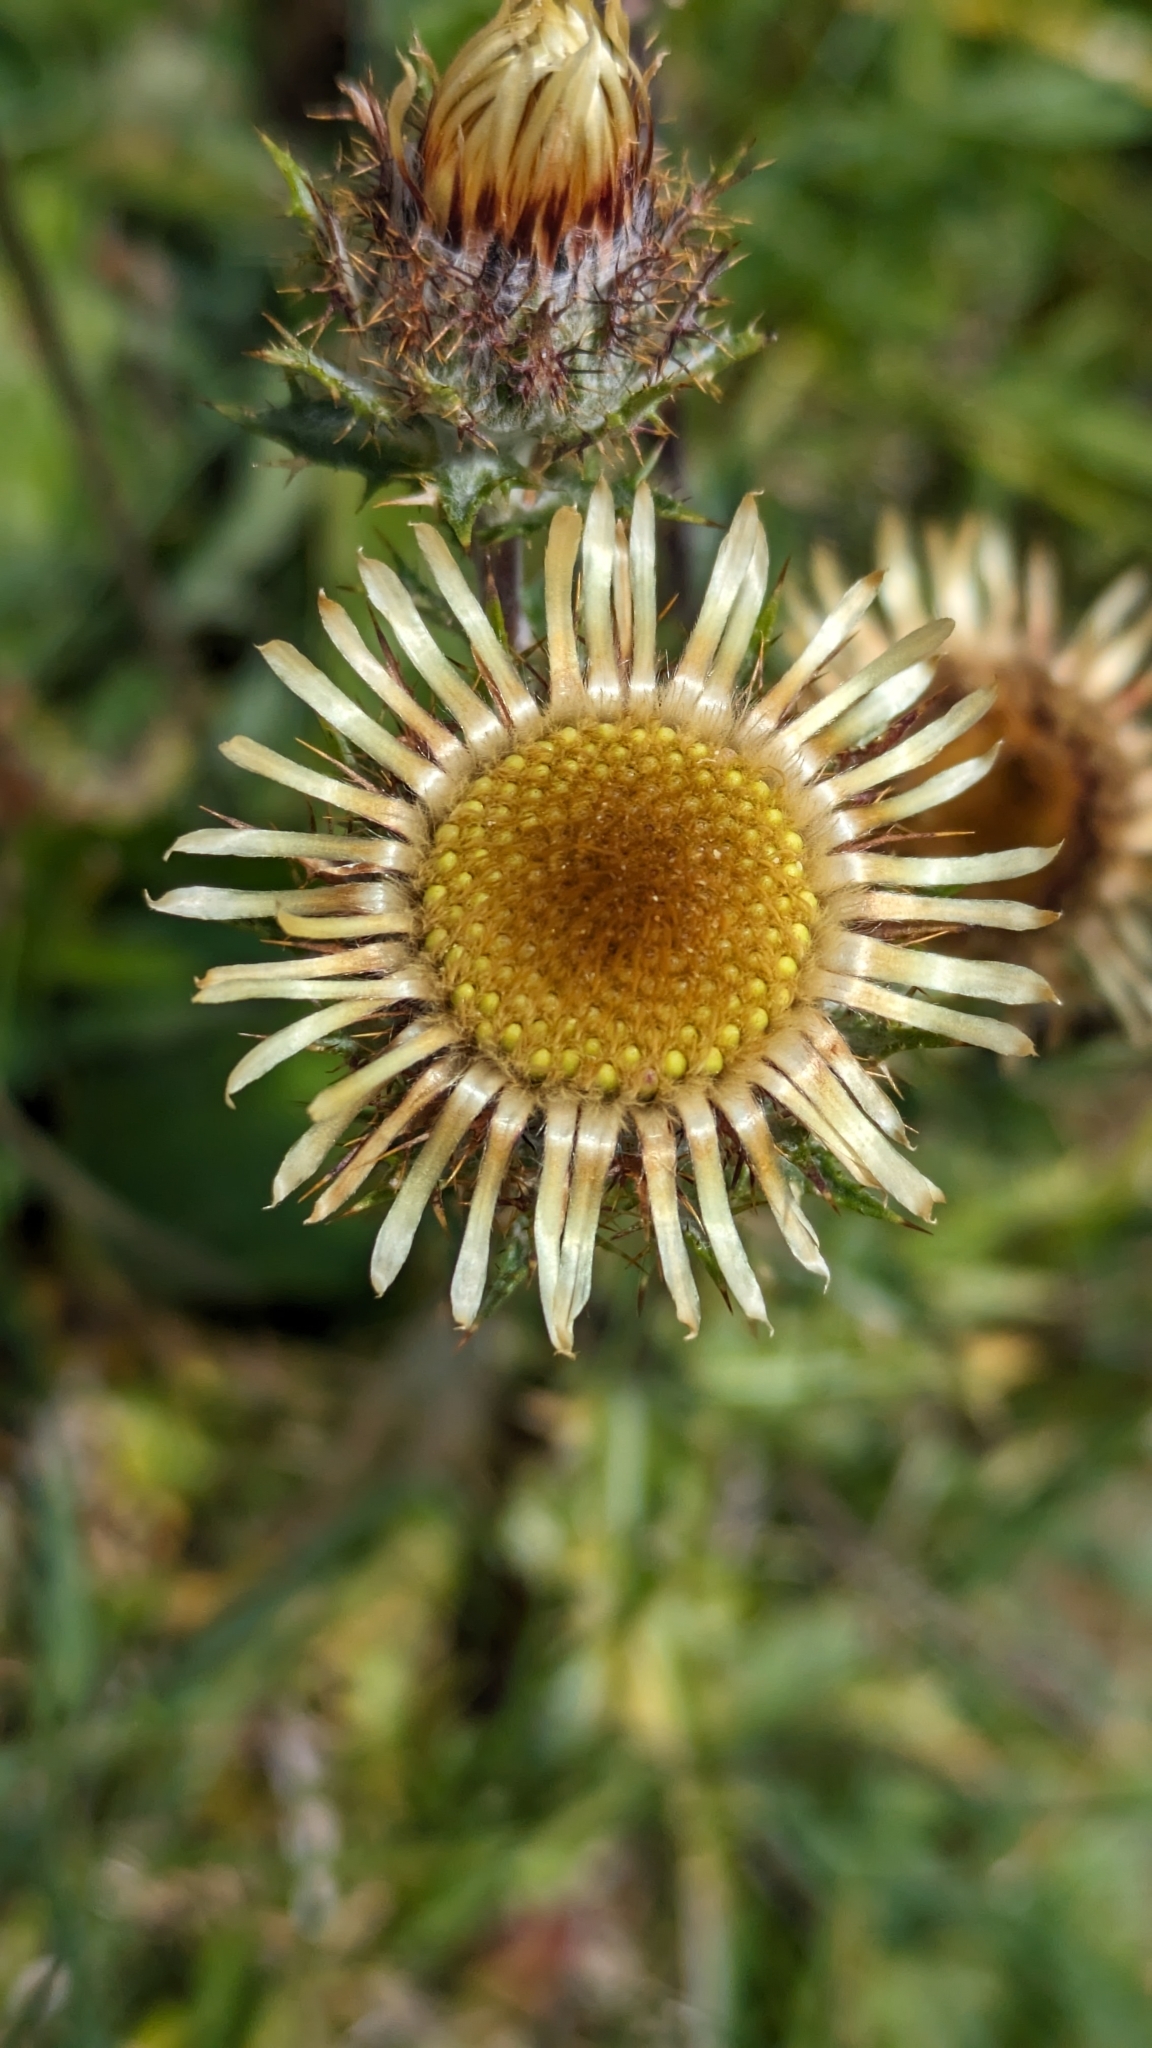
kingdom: Plantae
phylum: Tracheophyta
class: Magnoliopsida
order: Asterales
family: Asteraceae
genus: Carlina
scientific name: Carlina vulgaris
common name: Carline thistle
